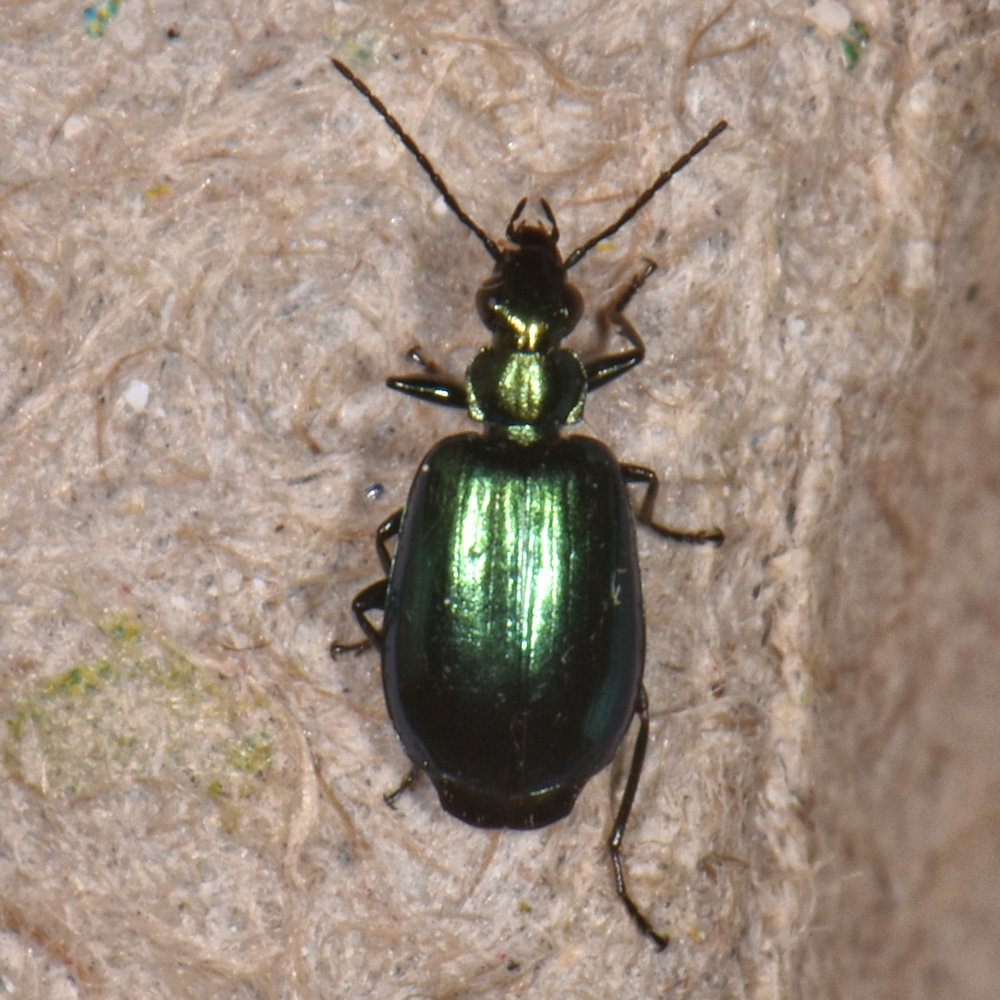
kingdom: Animalia
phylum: Arthropoda
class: Insecta
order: Coleoptera
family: Carabidae
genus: Lebia
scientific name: Lebia viridis
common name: Flower lebia beetle
